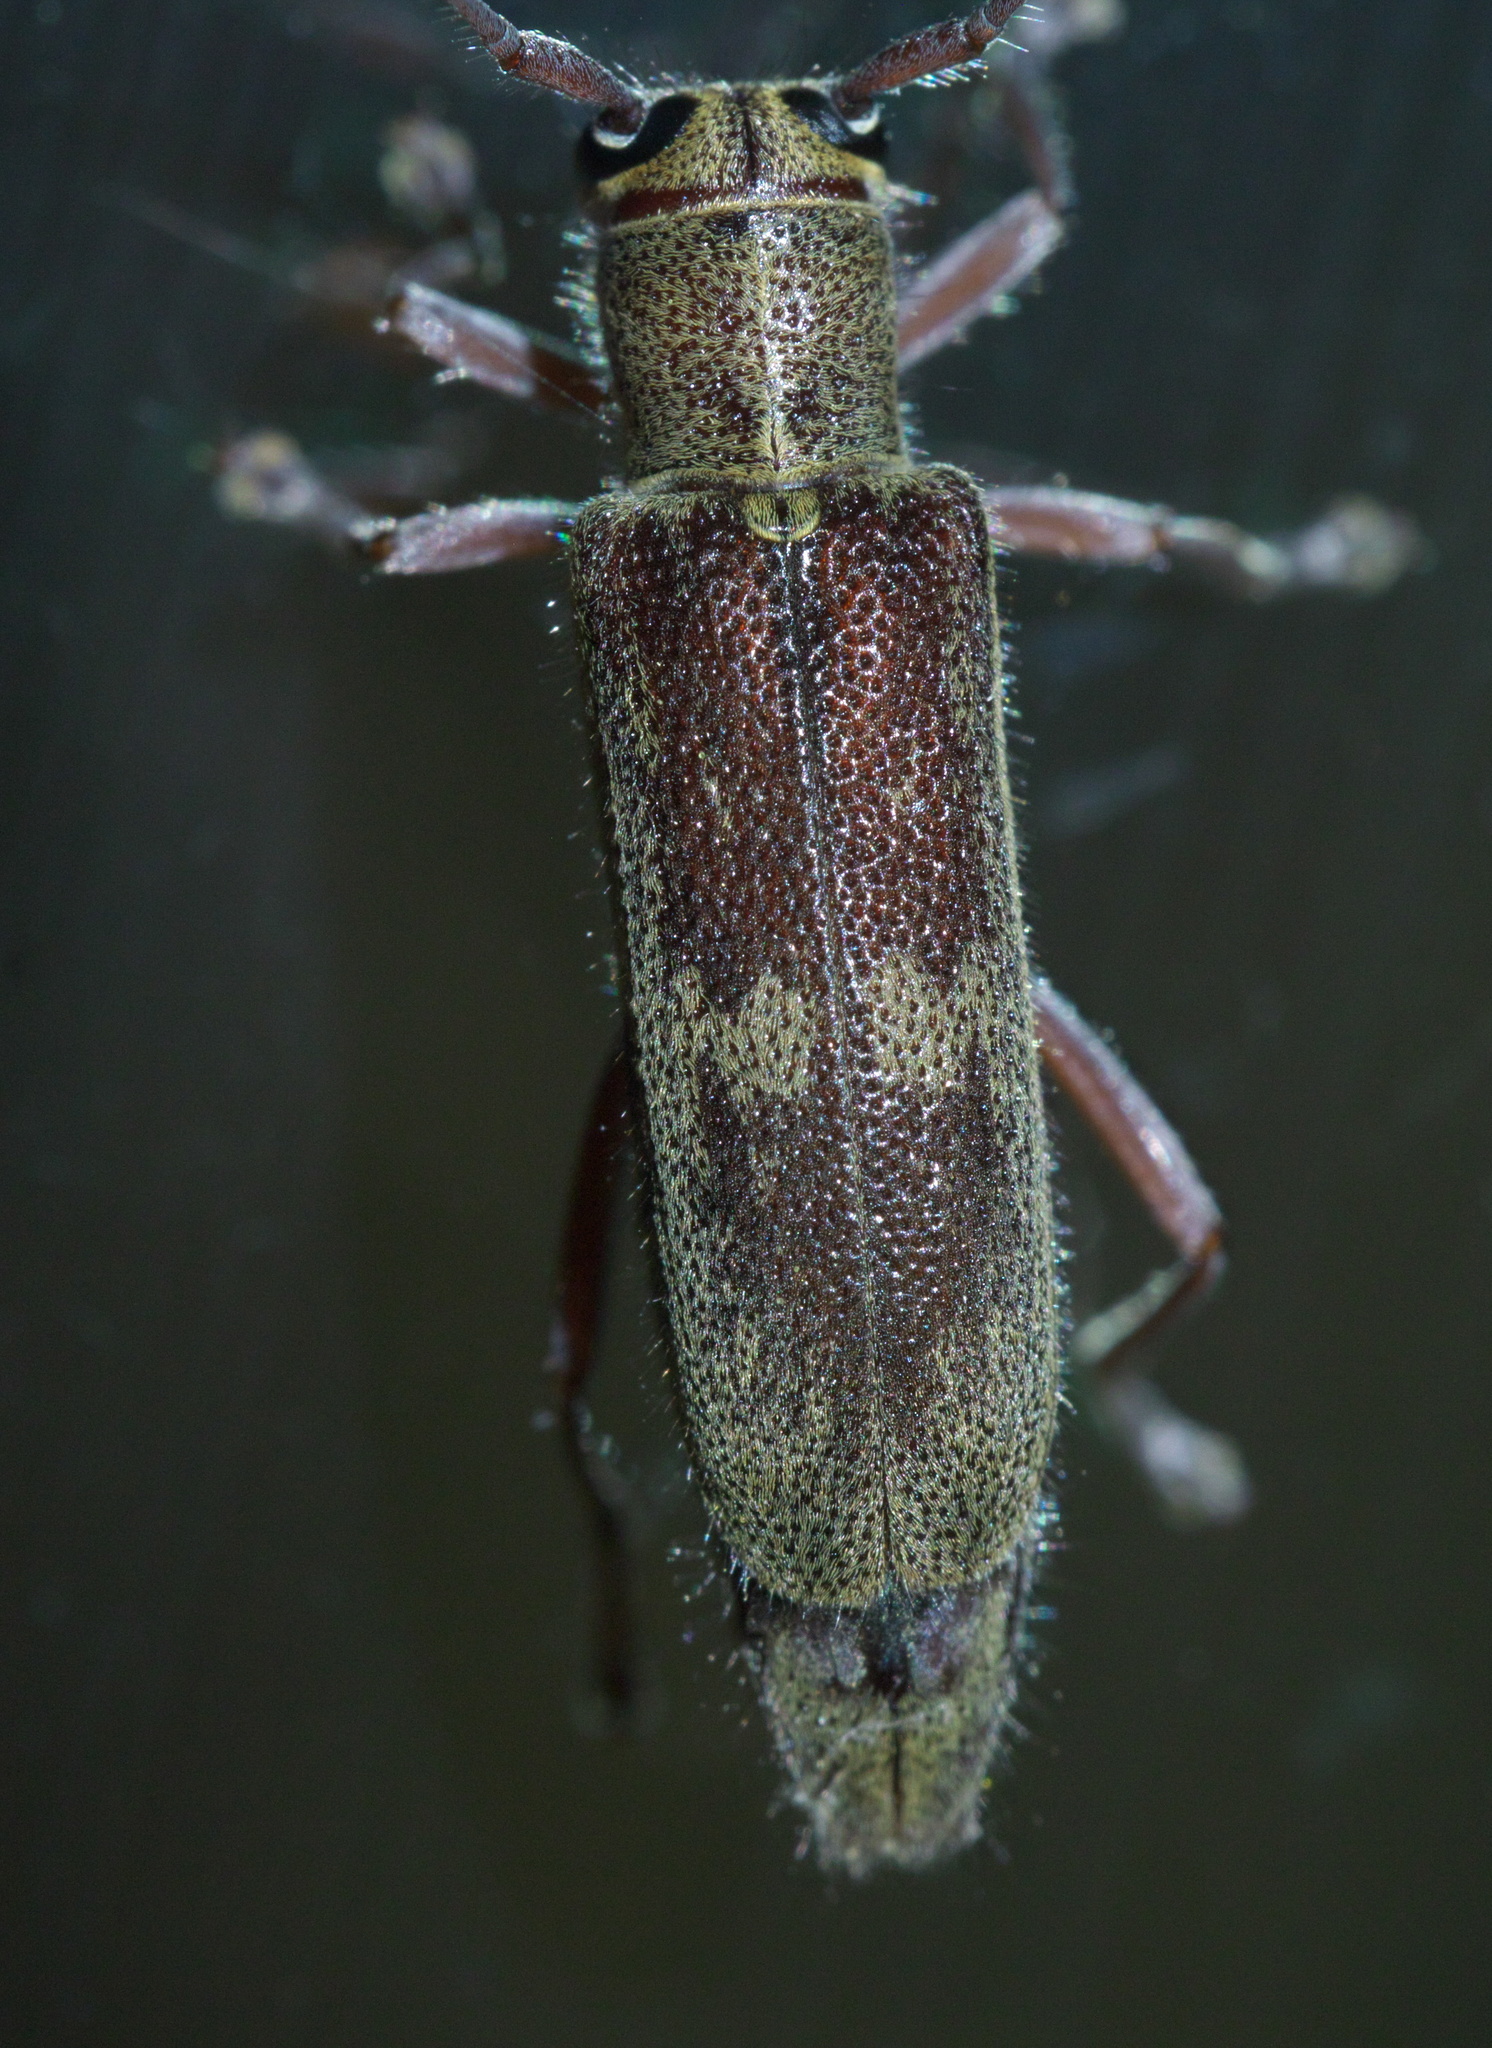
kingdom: Animalia
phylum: Arthropoda
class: Insecta
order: Coleoptera
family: Cerambycidae
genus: Saperda
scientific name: Saperda discoidea
